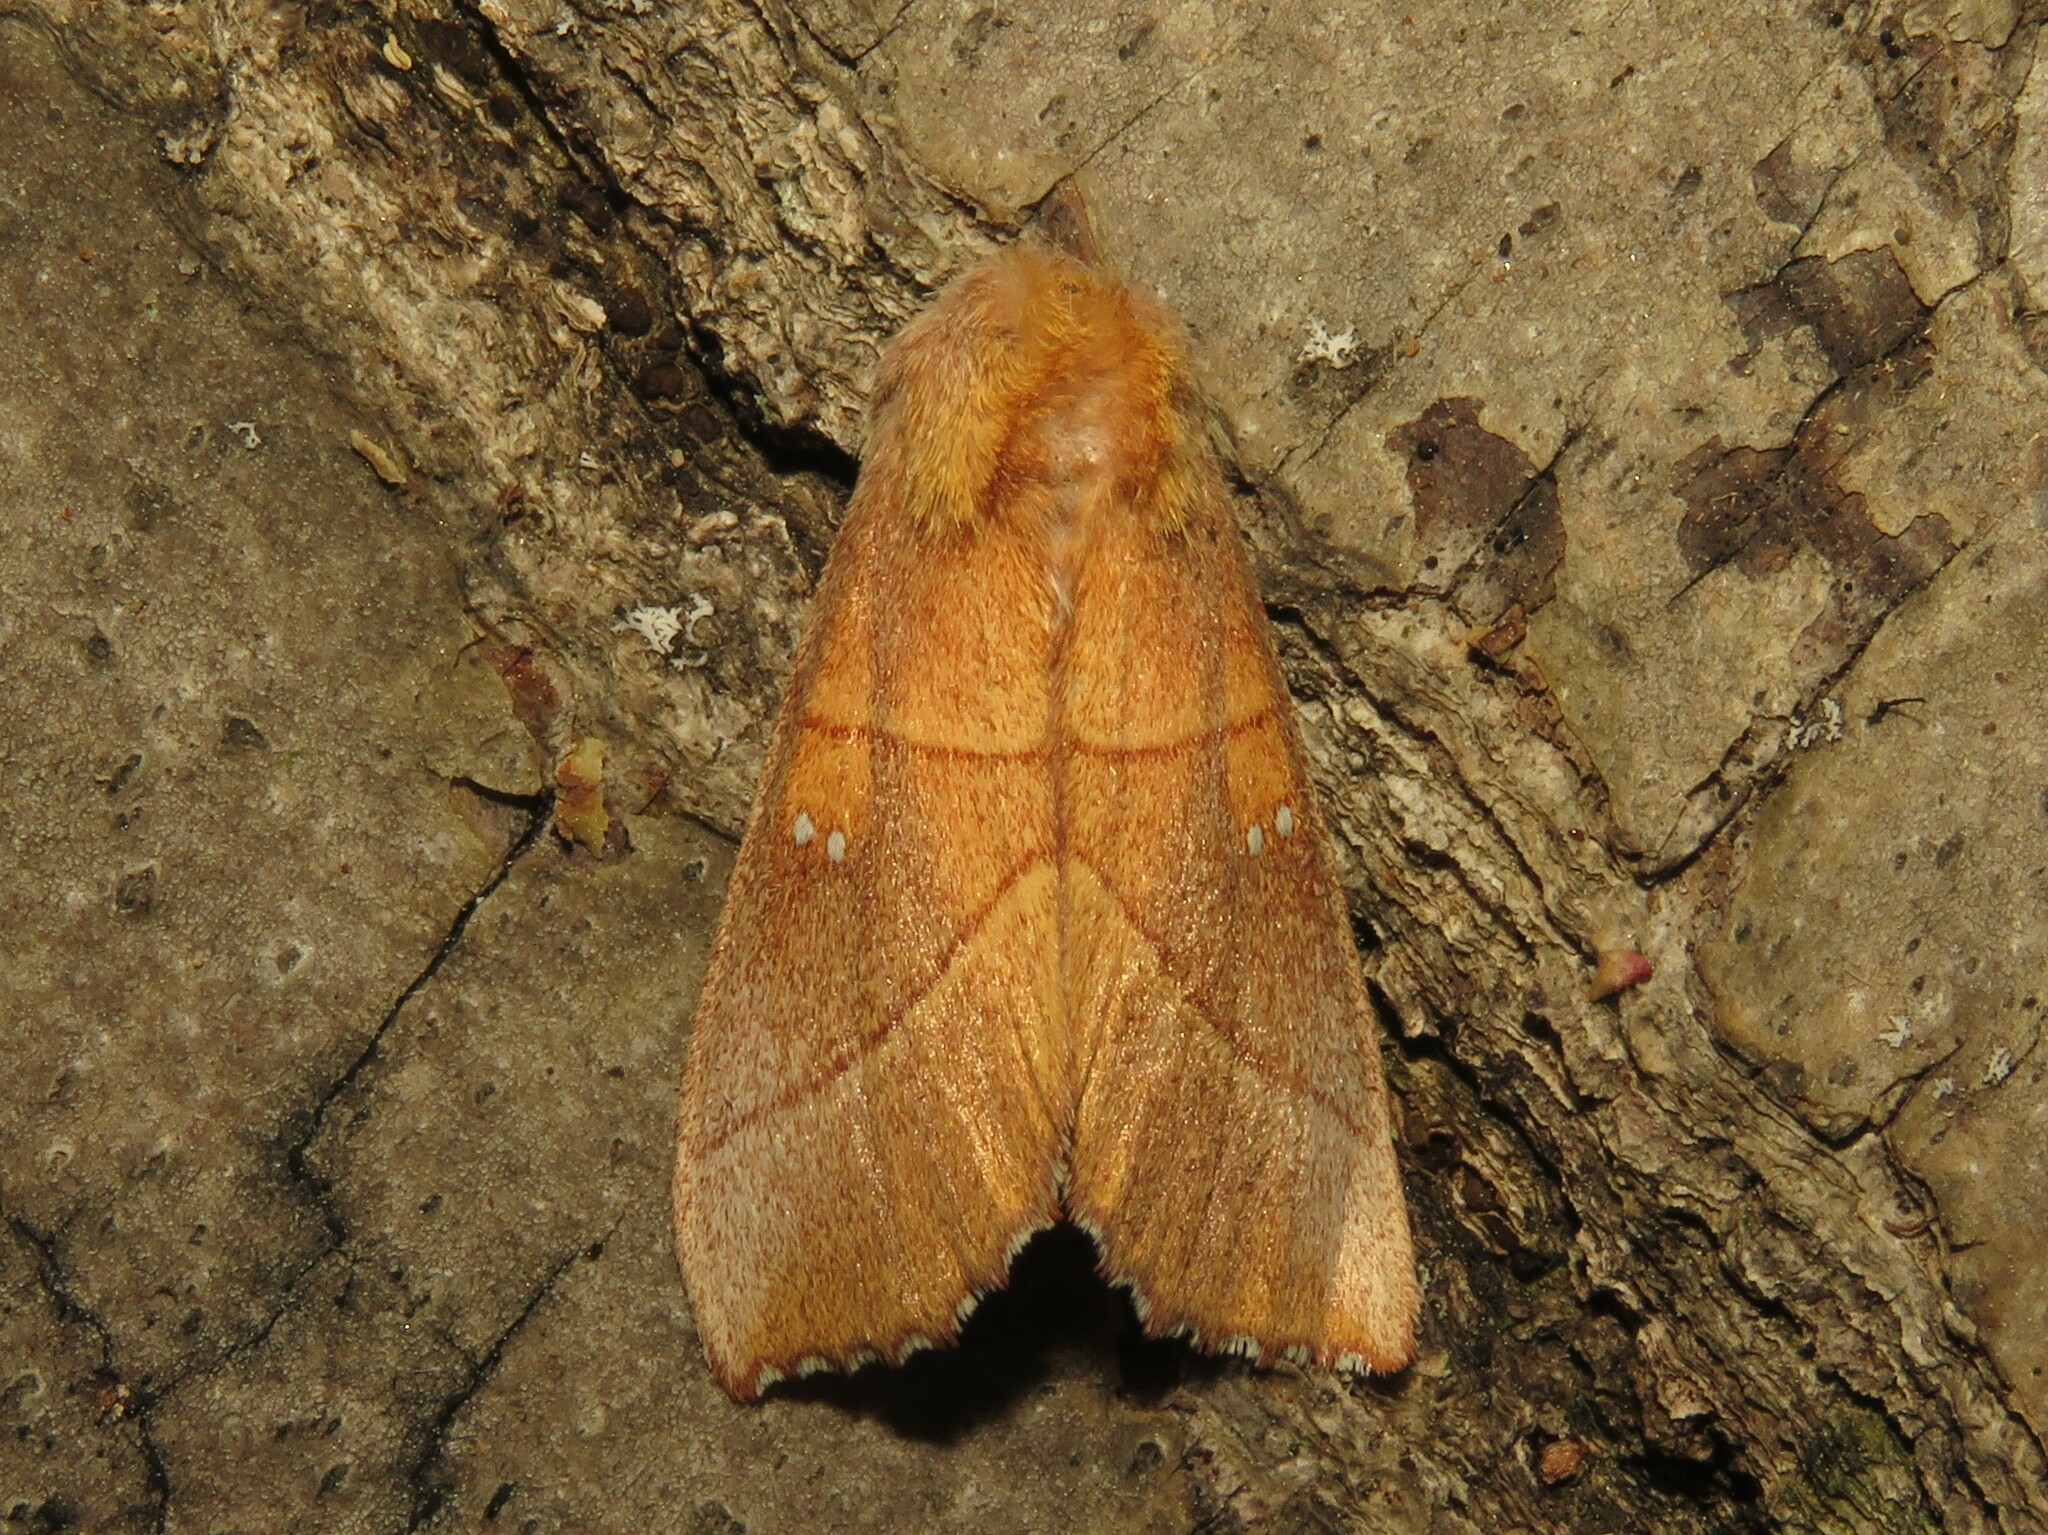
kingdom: Animalia
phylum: Arthropoda
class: Insecta
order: Lepidoptera
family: Notodontidae
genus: Nadata
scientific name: Nadata gibbosa
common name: White-dotted prominent
